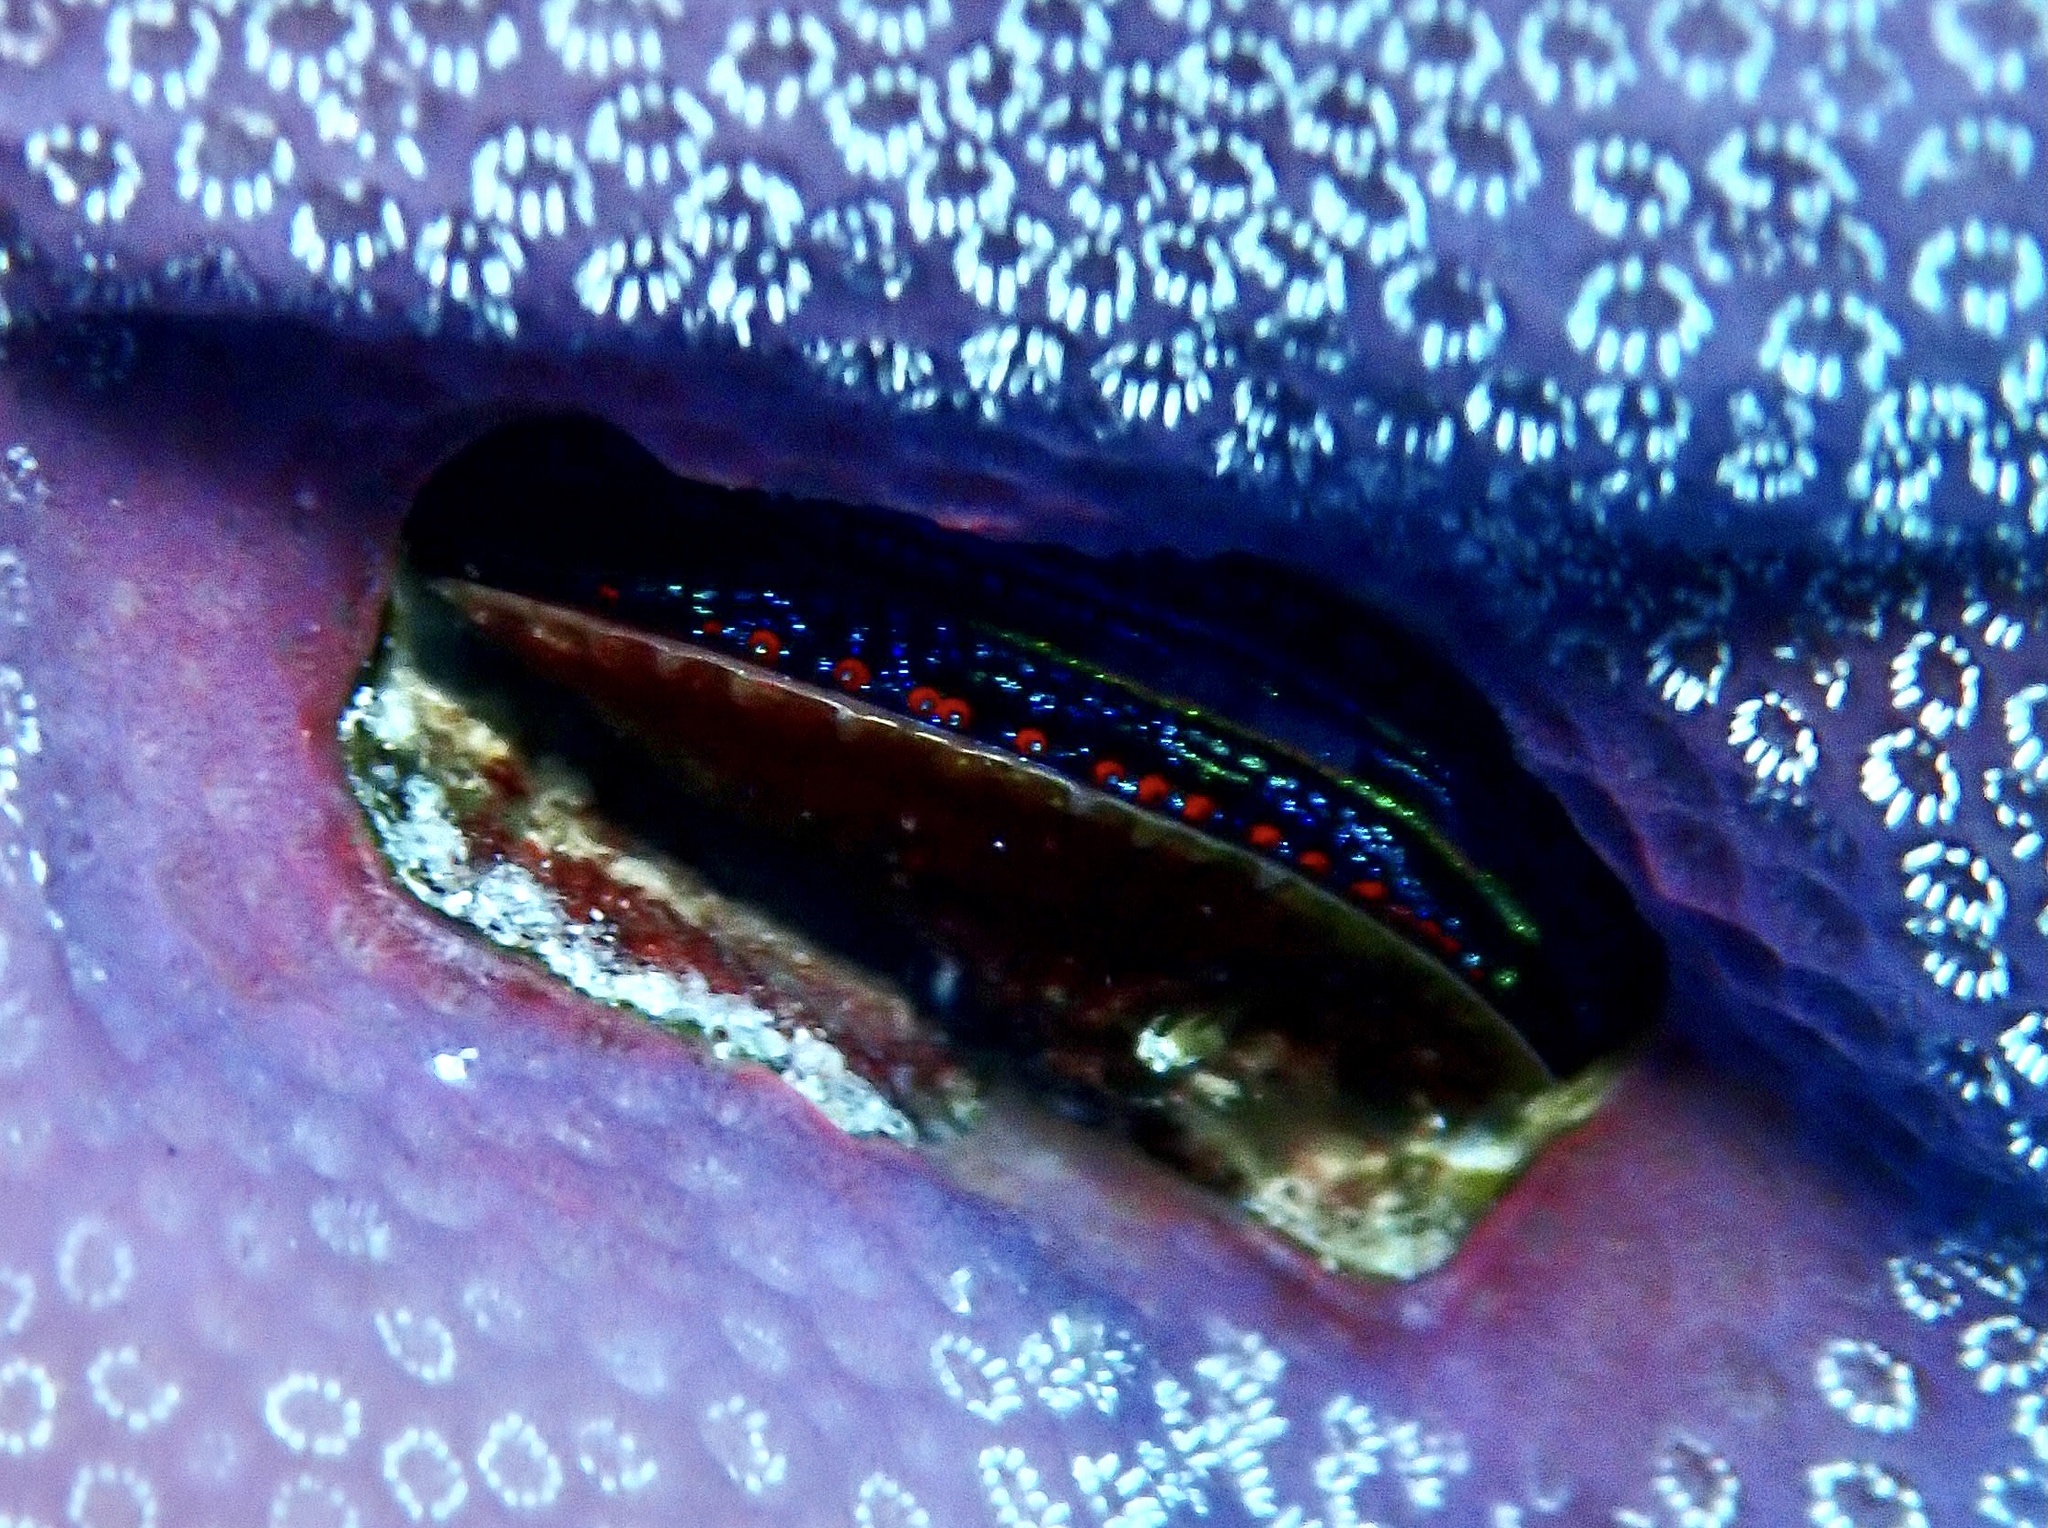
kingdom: Animalia
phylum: Mollusca
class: Bivalvia
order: Pectinida
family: Pectinidae
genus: Pedum
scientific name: Pedum spondyloideum
